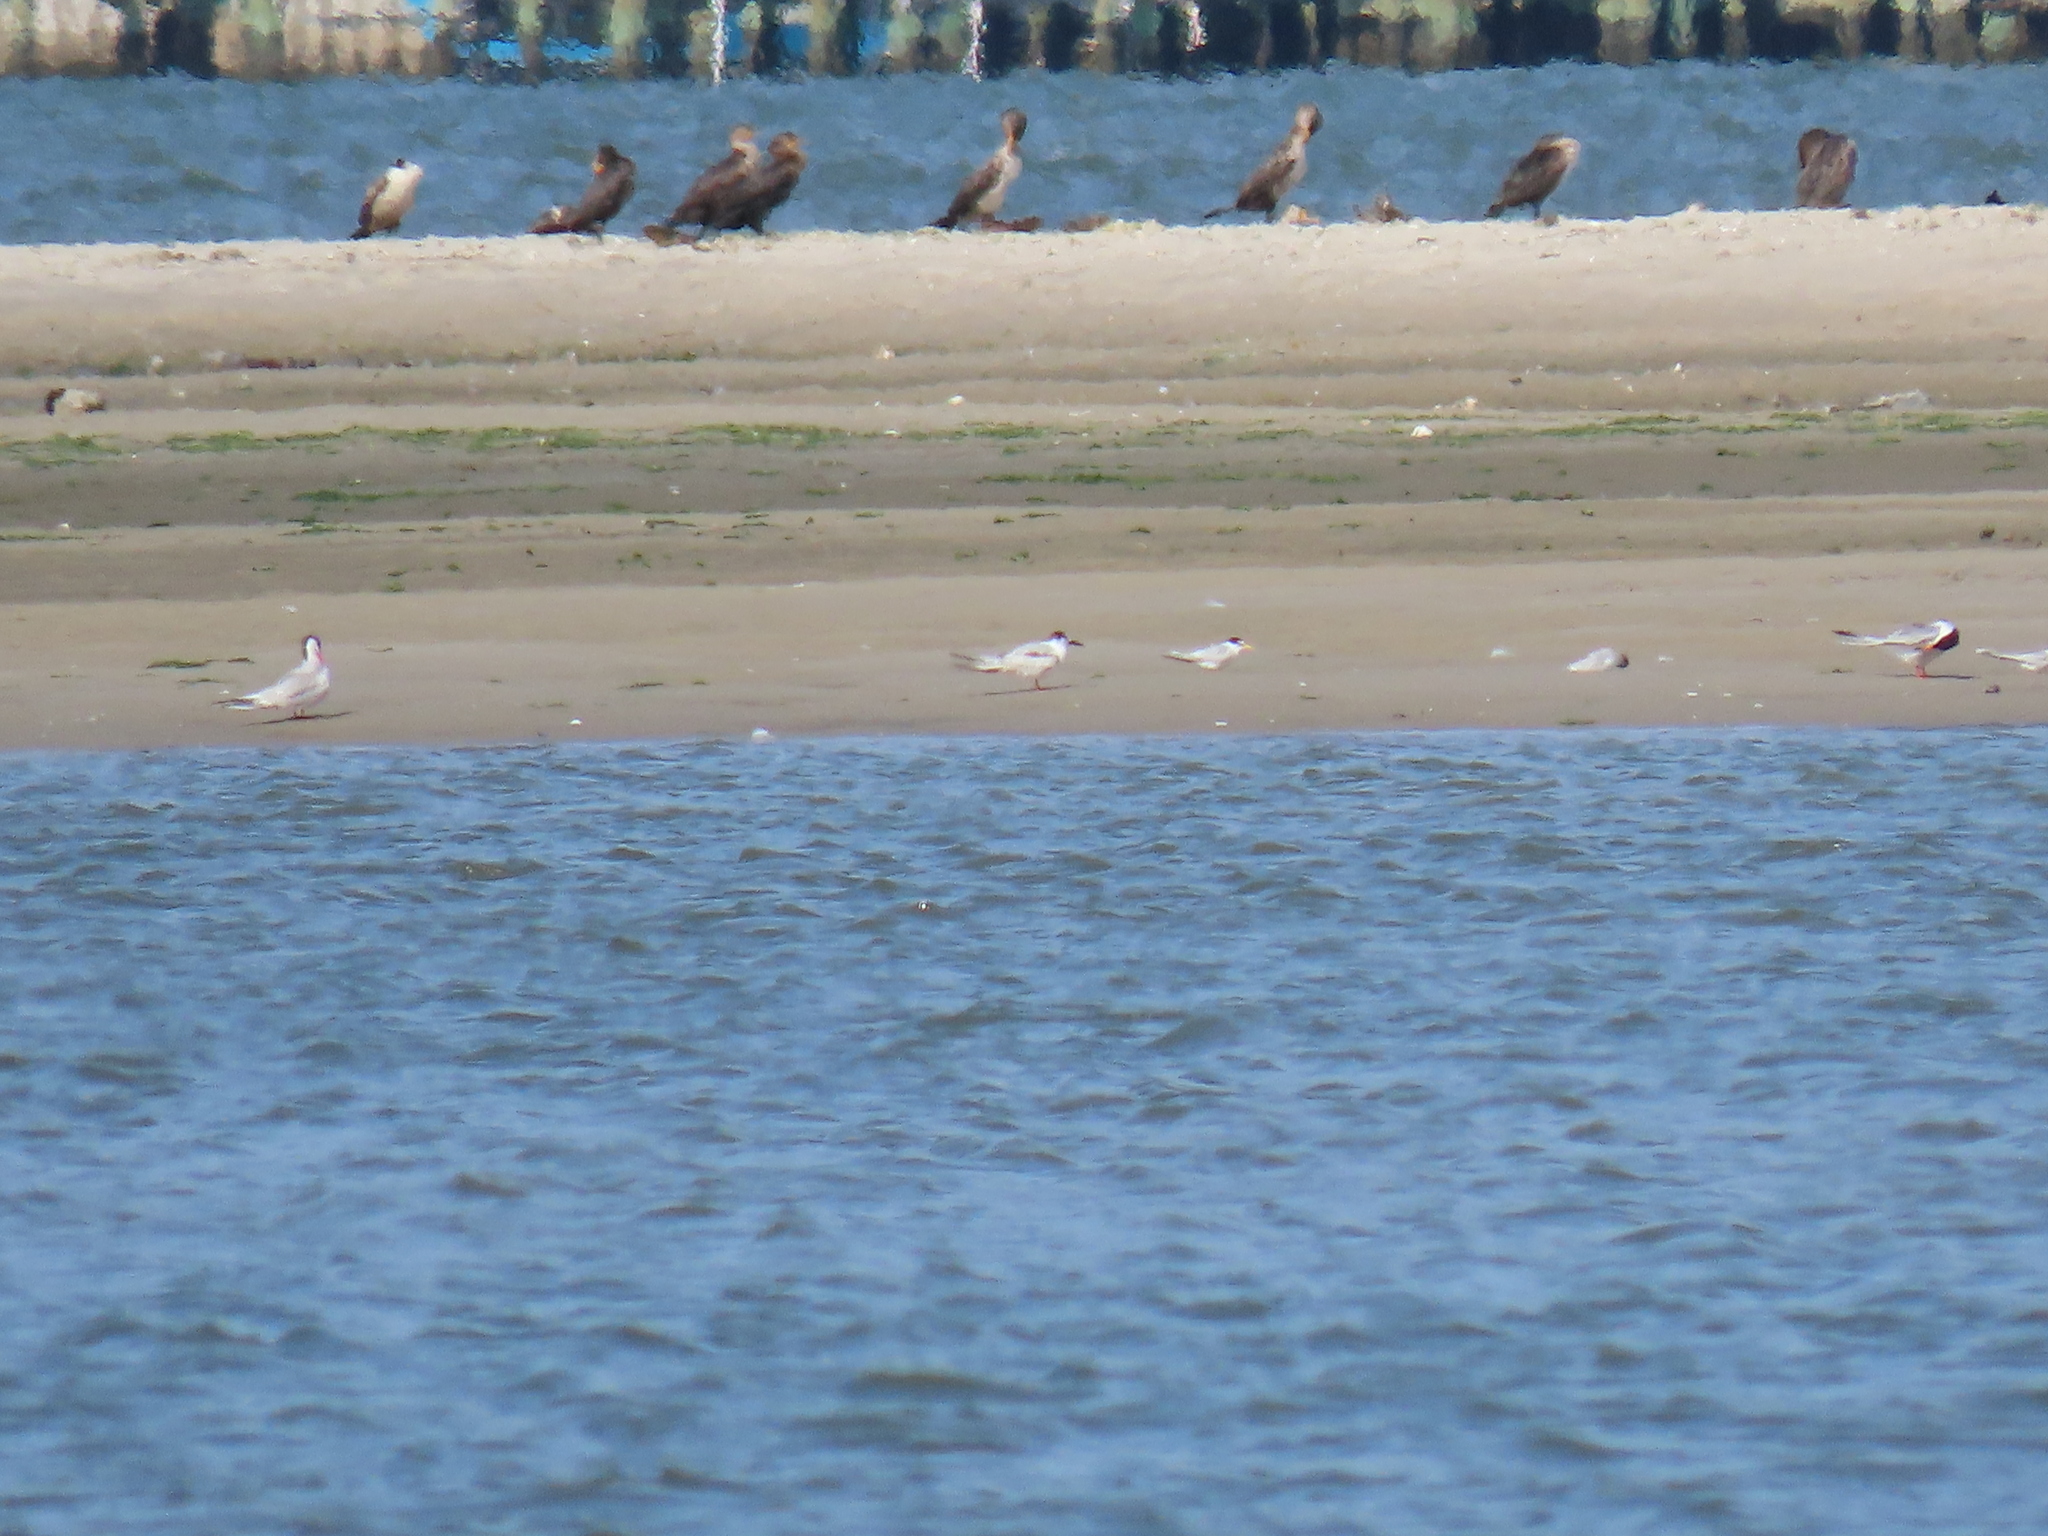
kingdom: Animalia
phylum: Chordata
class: Aves
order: Charadriiformes
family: Laridae
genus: Sternula
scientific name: Sternula antillarum
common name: Least tern
